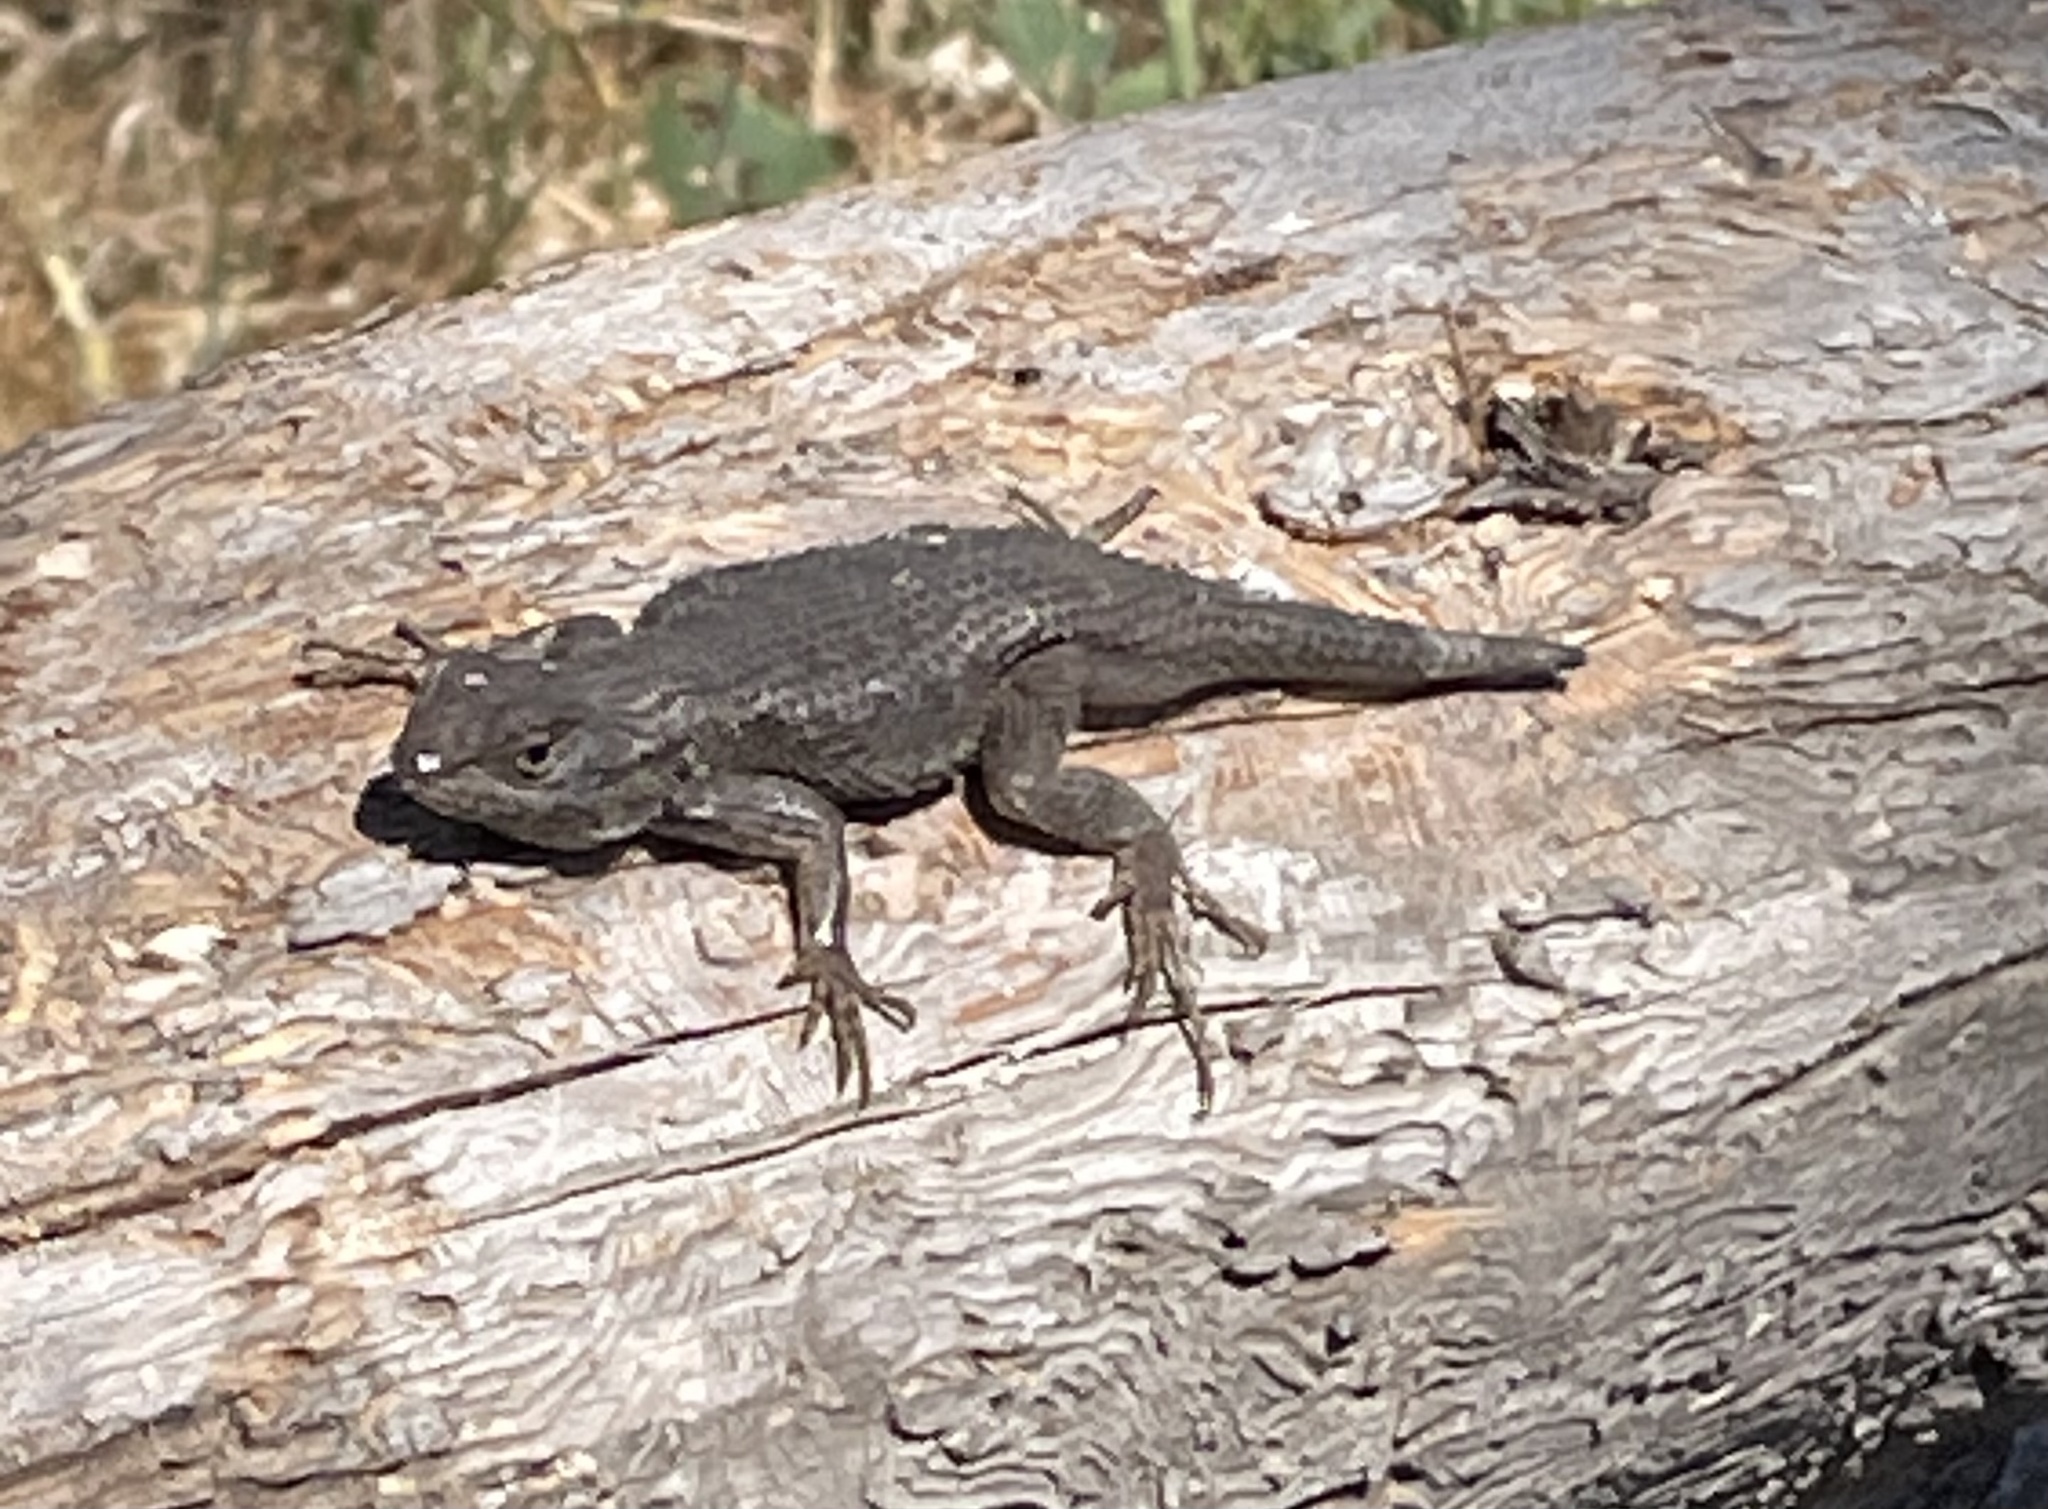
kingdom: Animalia
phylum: Chordata
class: Squamata
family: Phrynosomatidae
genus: Sceloporus
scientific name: Sceloporus occidentalis
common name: Western fence lizard
